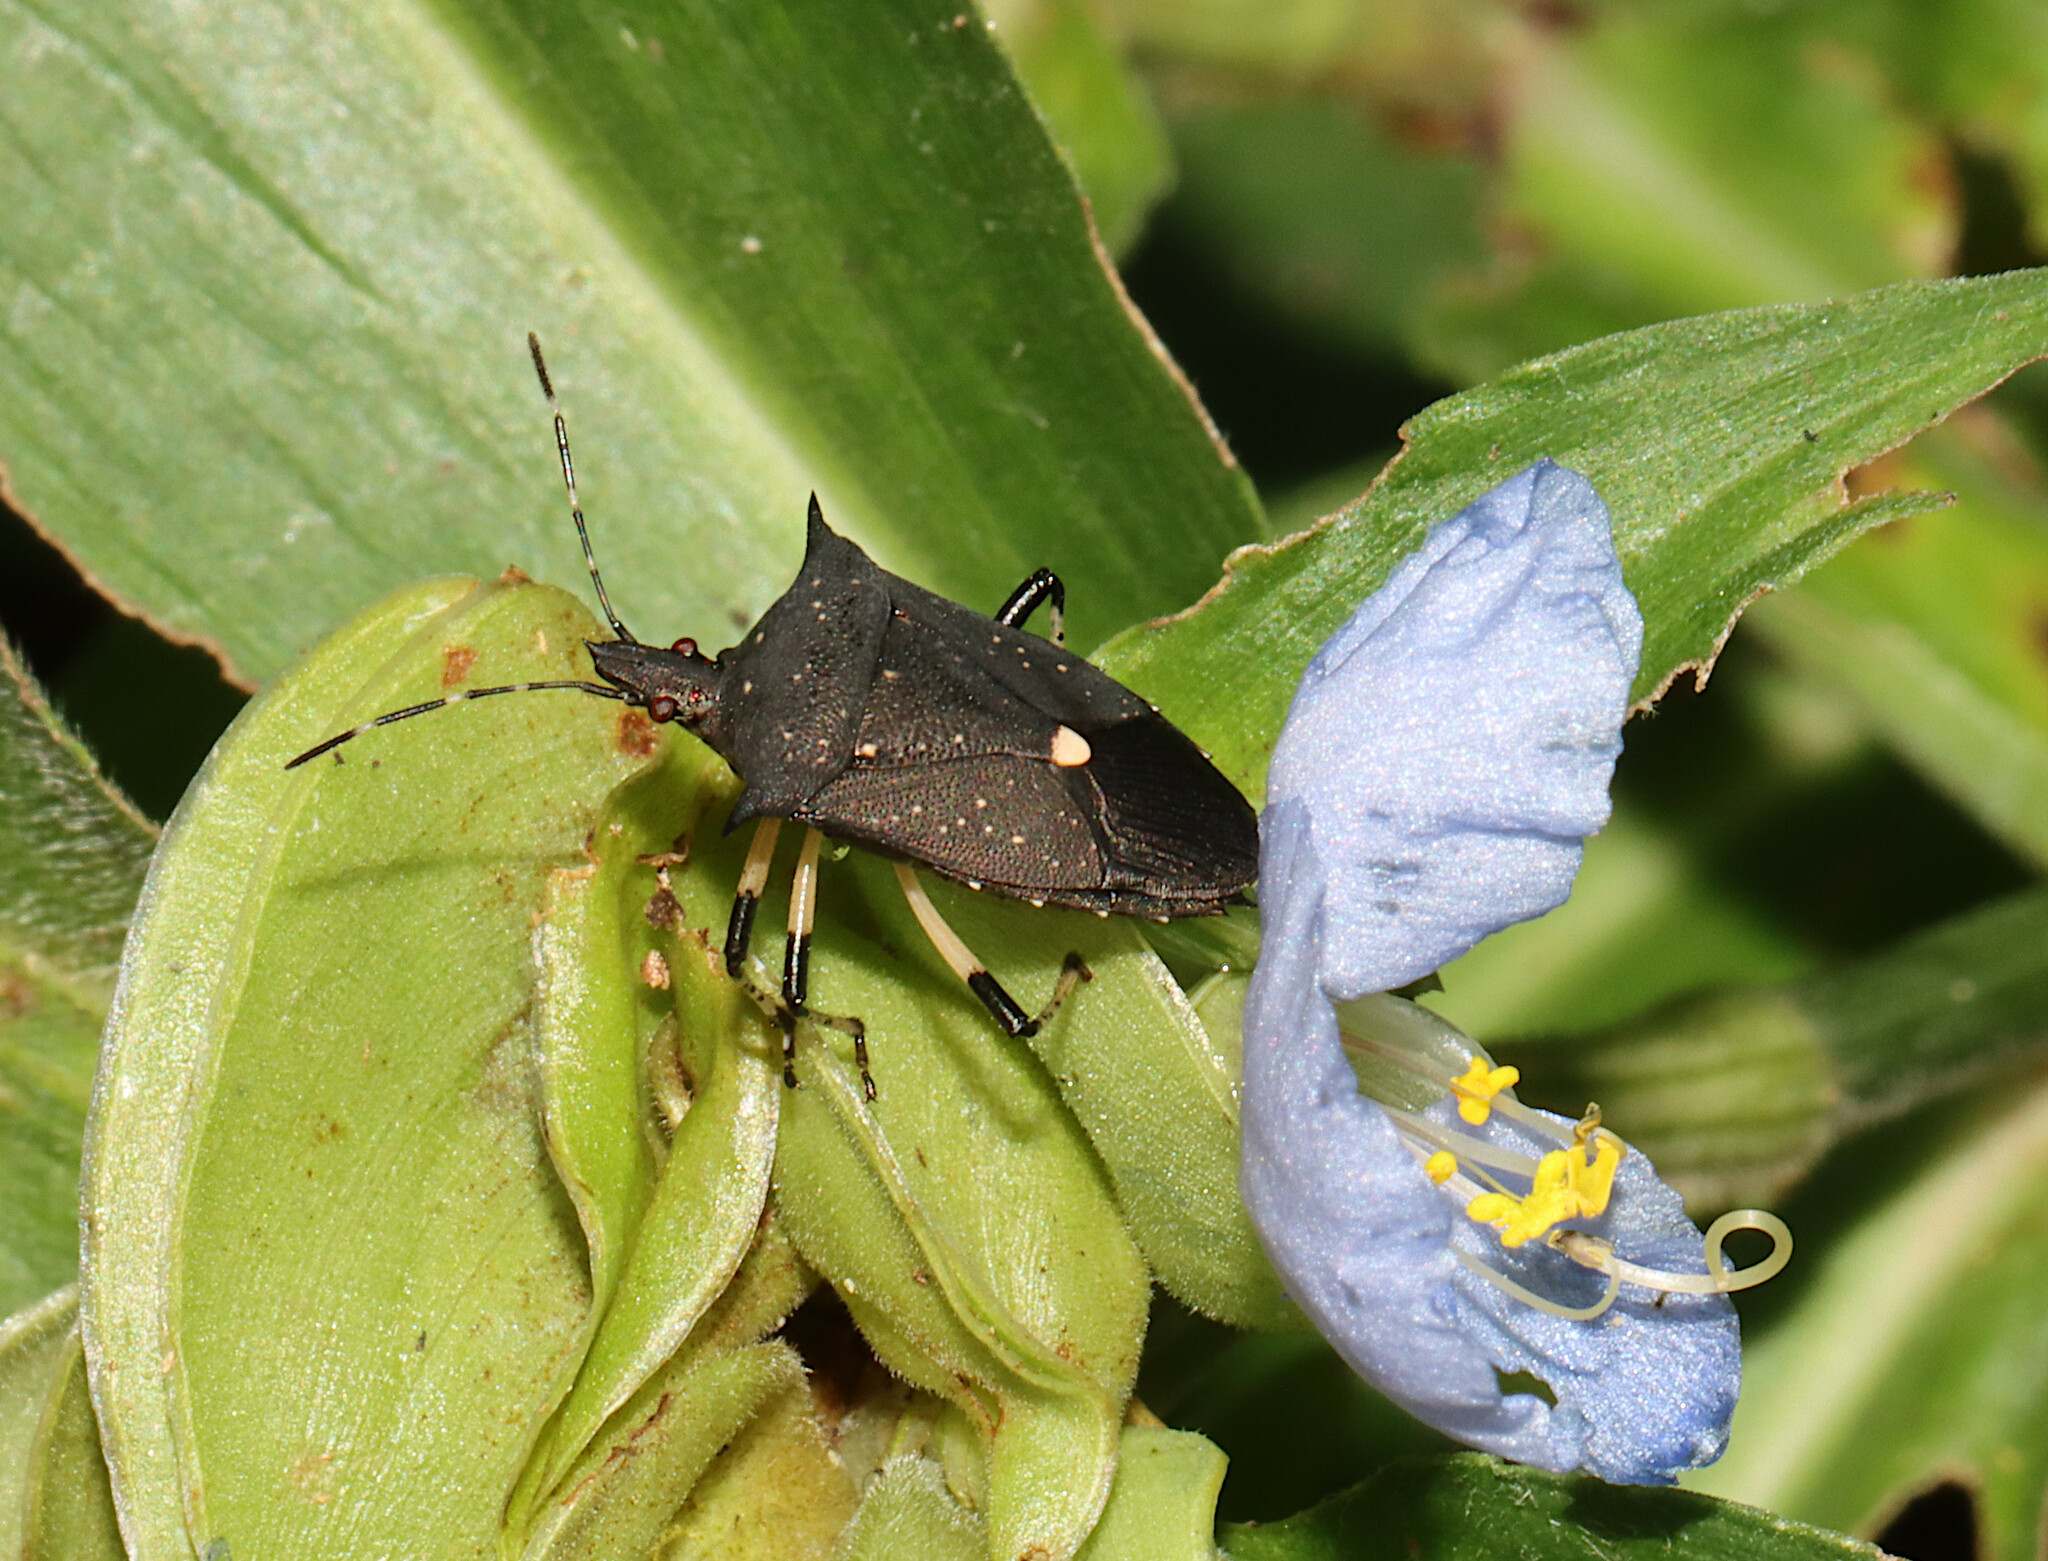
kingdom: Animalia
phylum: Arthropoda
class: Insecta
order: Hemiptera
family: Pentatomidae
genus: Proxys
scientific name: Proxys punctulatus
